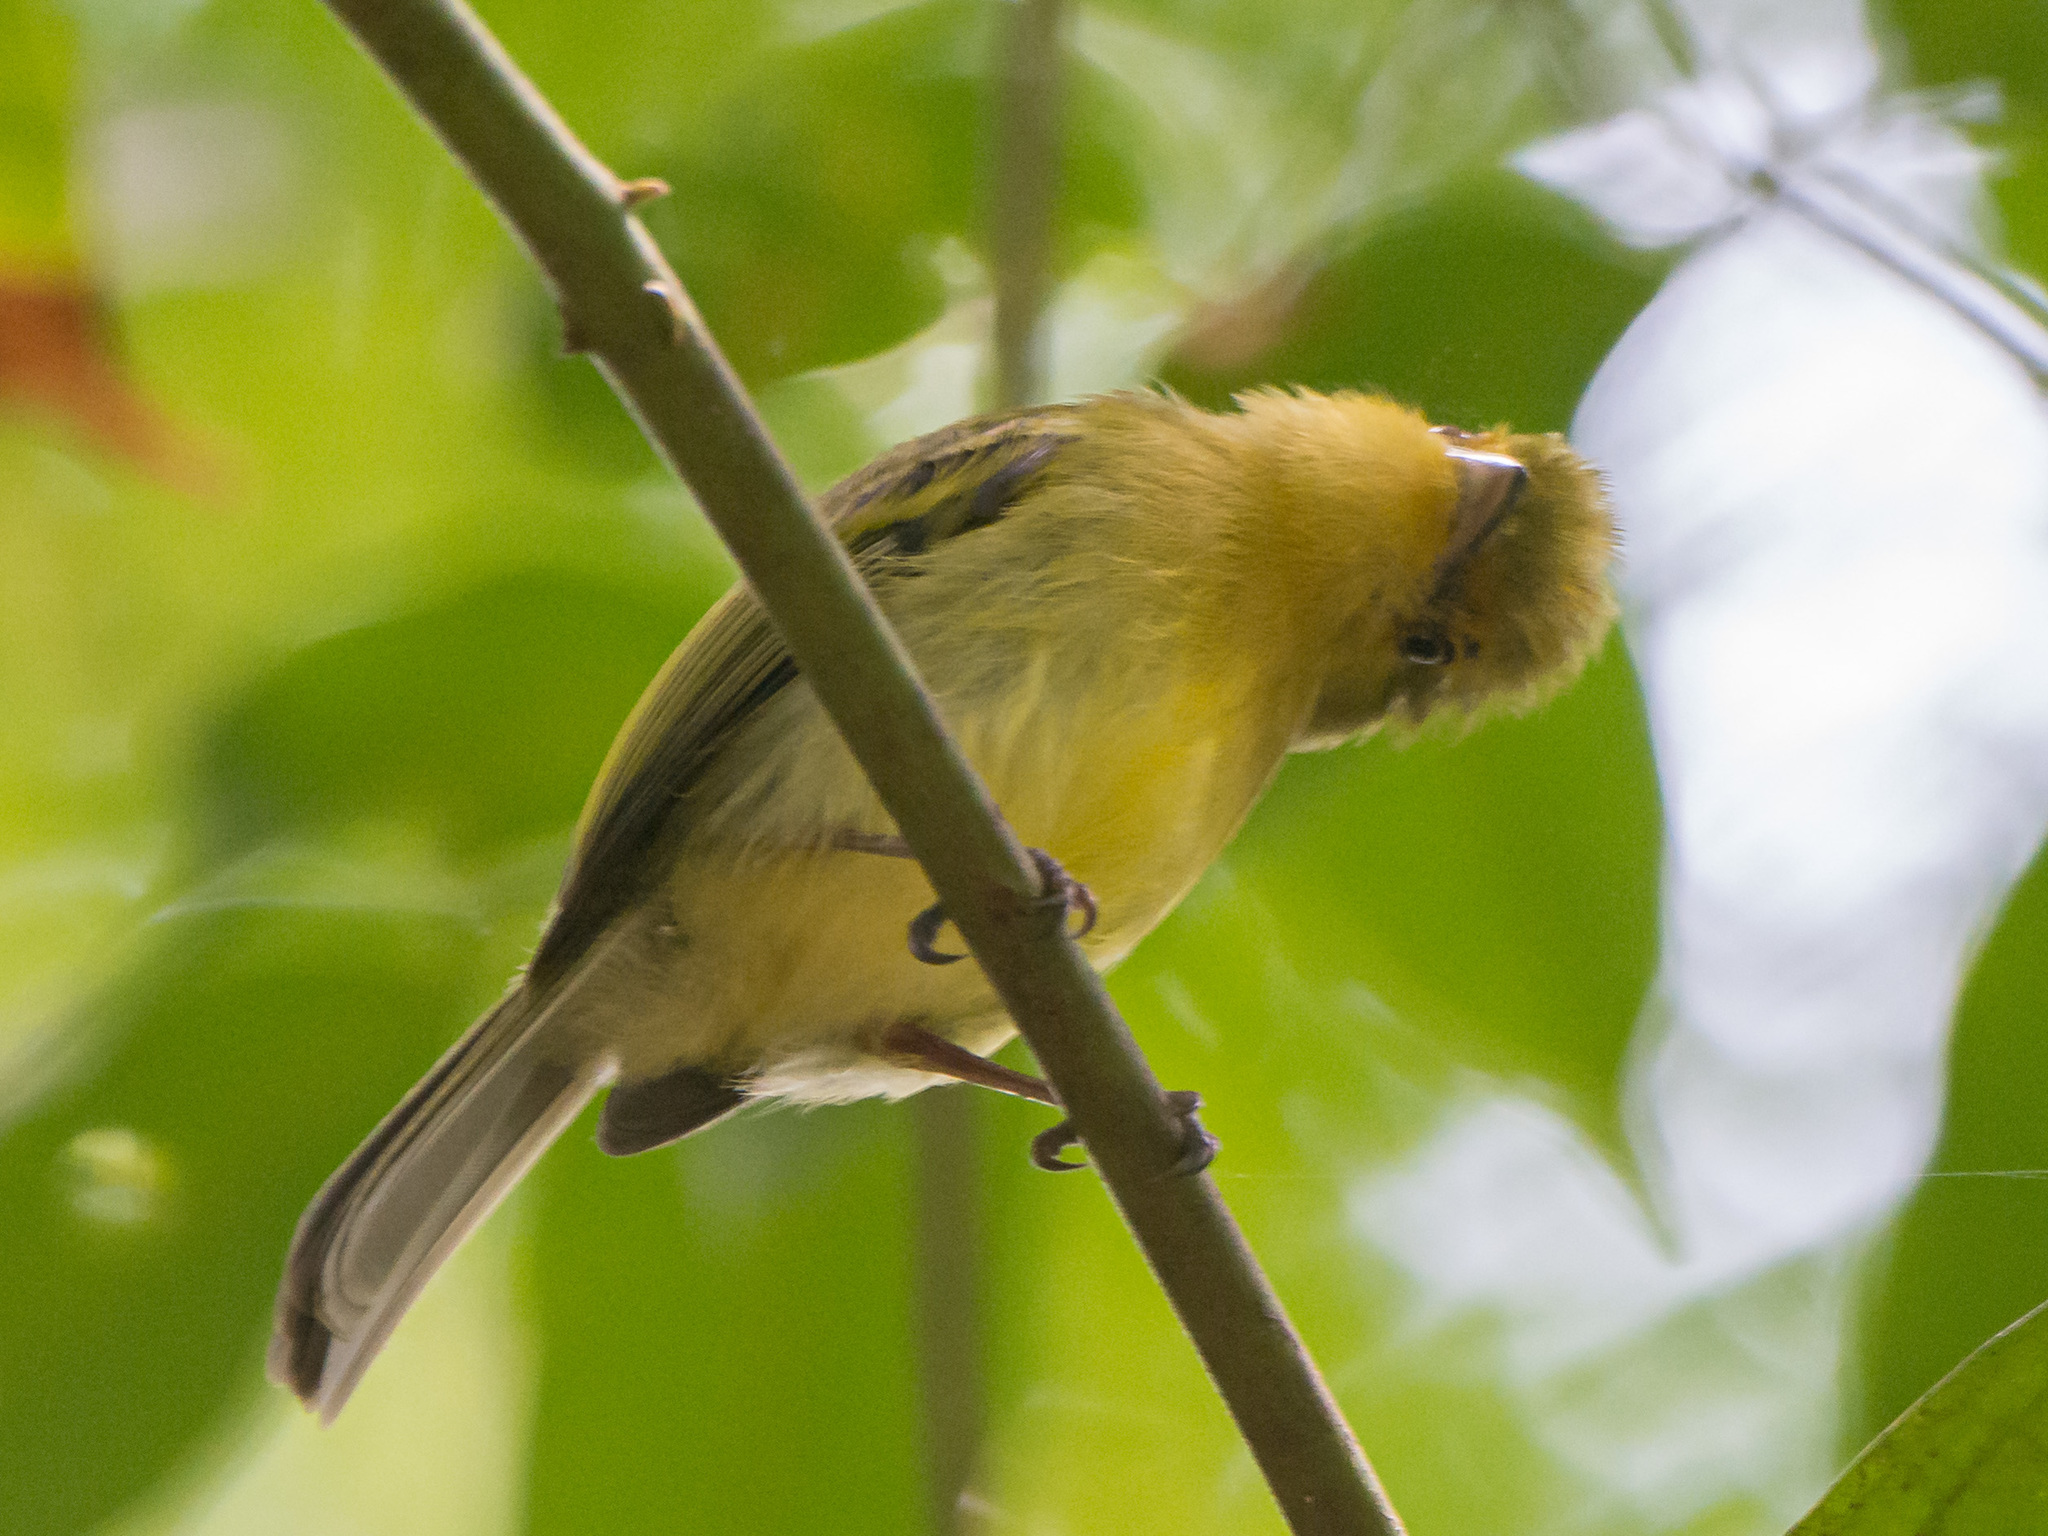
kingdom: Animalia
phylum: Chordata
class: Aves
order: Passeriformes
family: Tyrannidae
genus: Mionectes
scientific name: Mionectes oleagineus
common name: Ochre-bellied flycatcher
